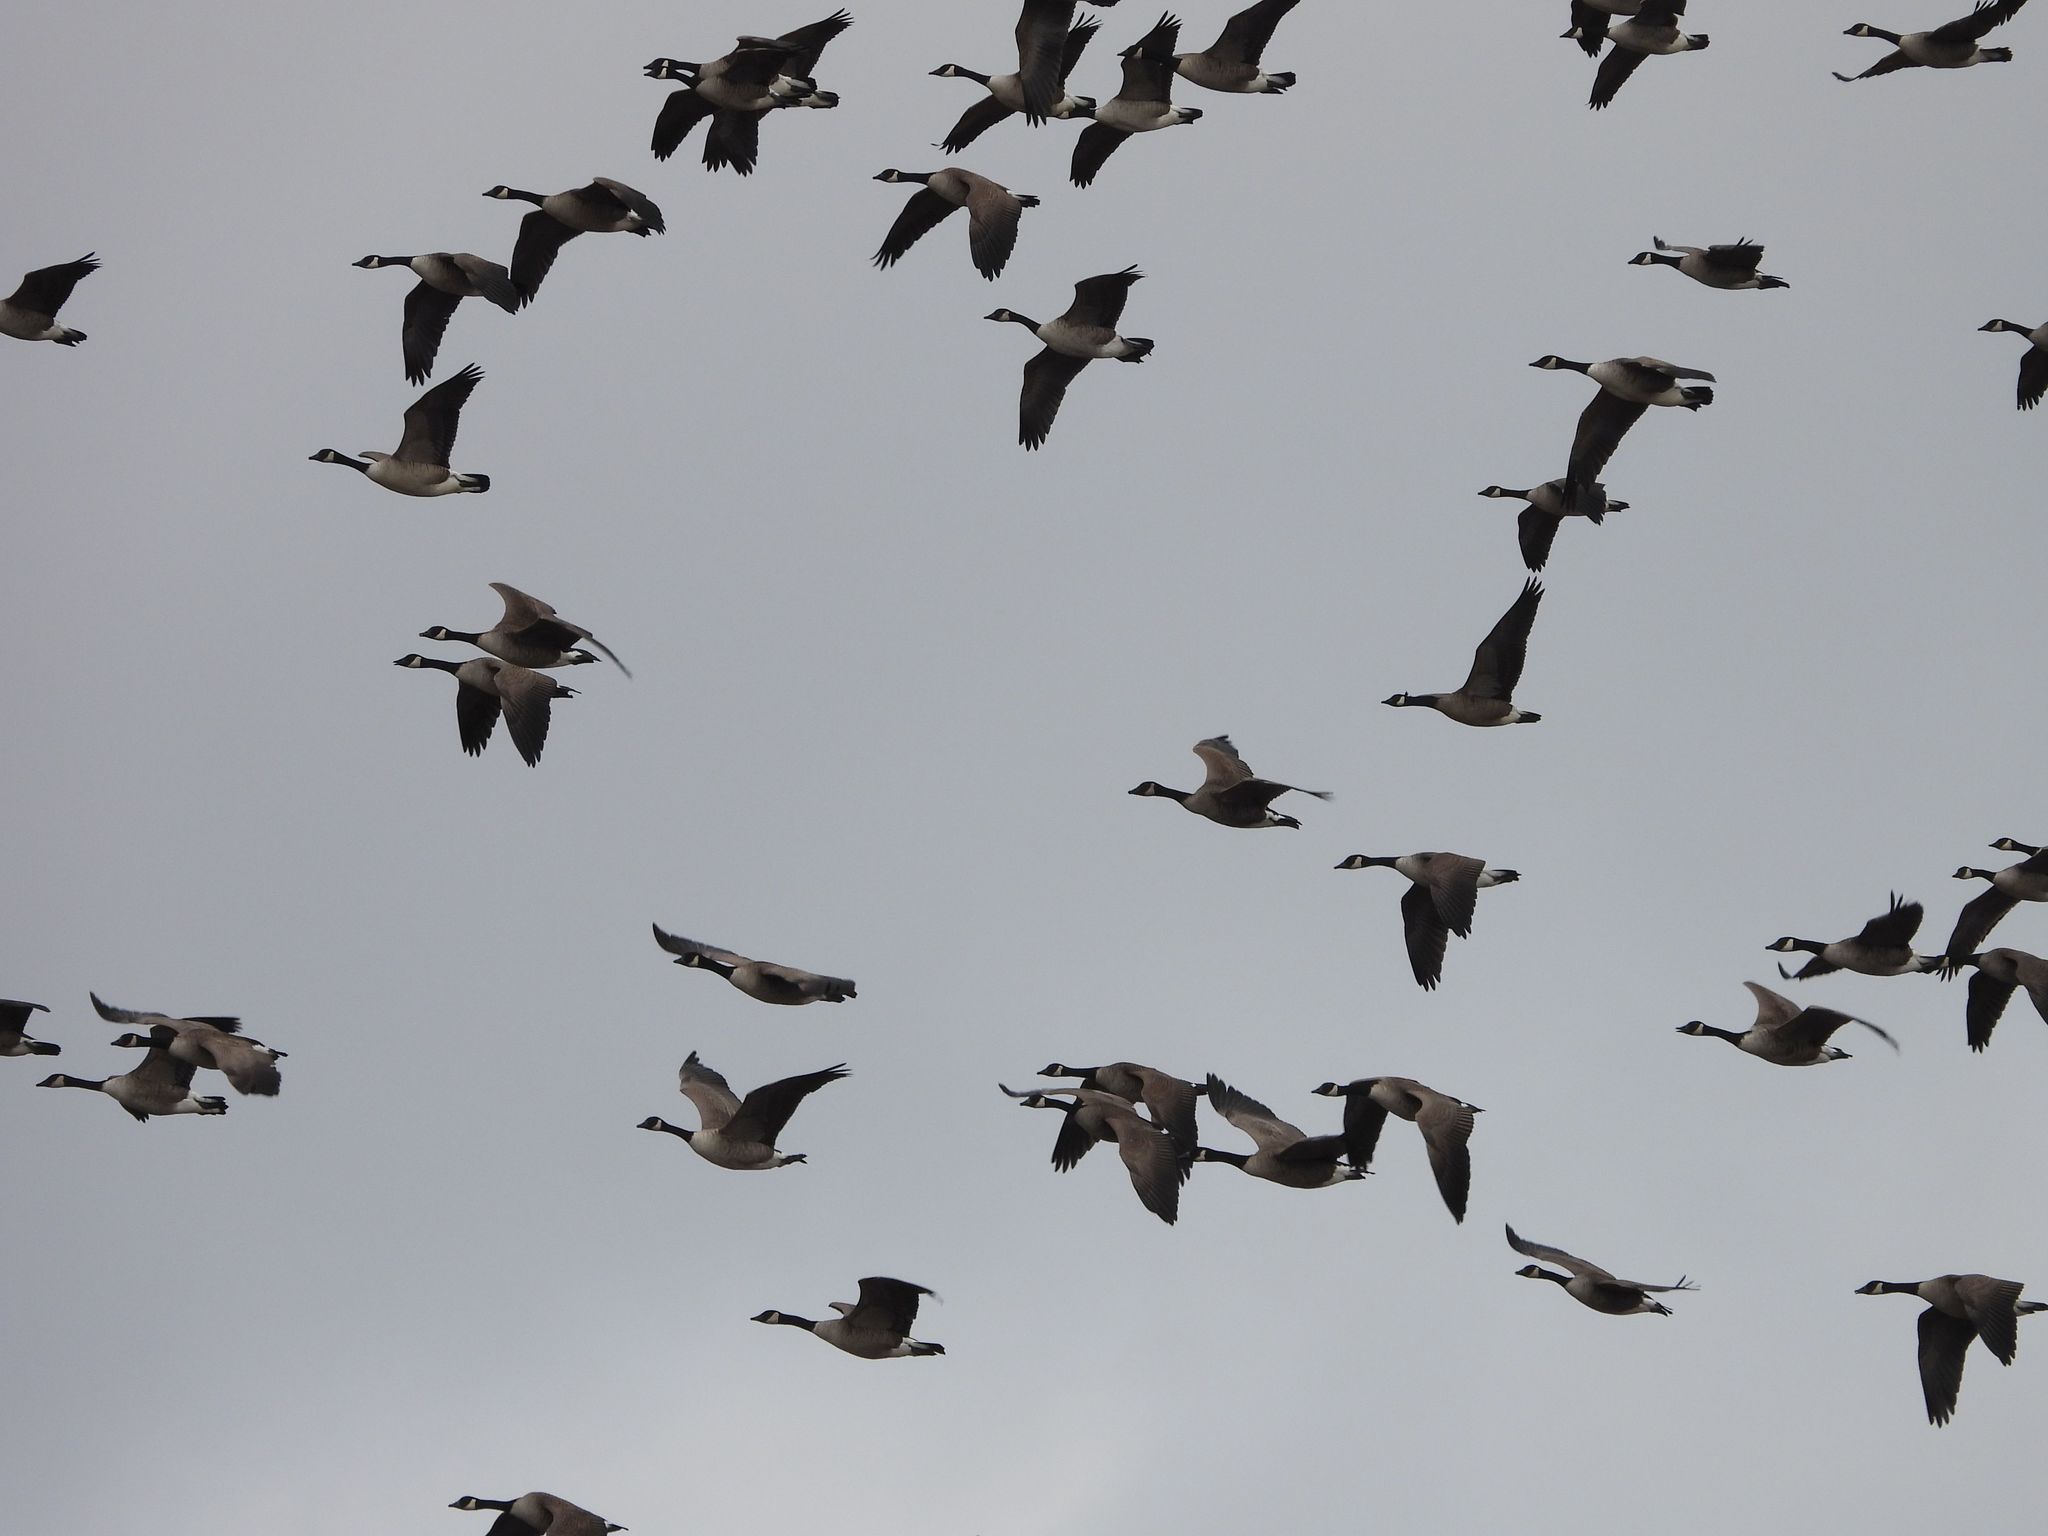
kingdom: Animalia
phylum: Chordata
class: Aves
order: Anseriformes
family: Anatidae
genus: Branta
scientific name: Branta canadensis
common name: Canada goose
